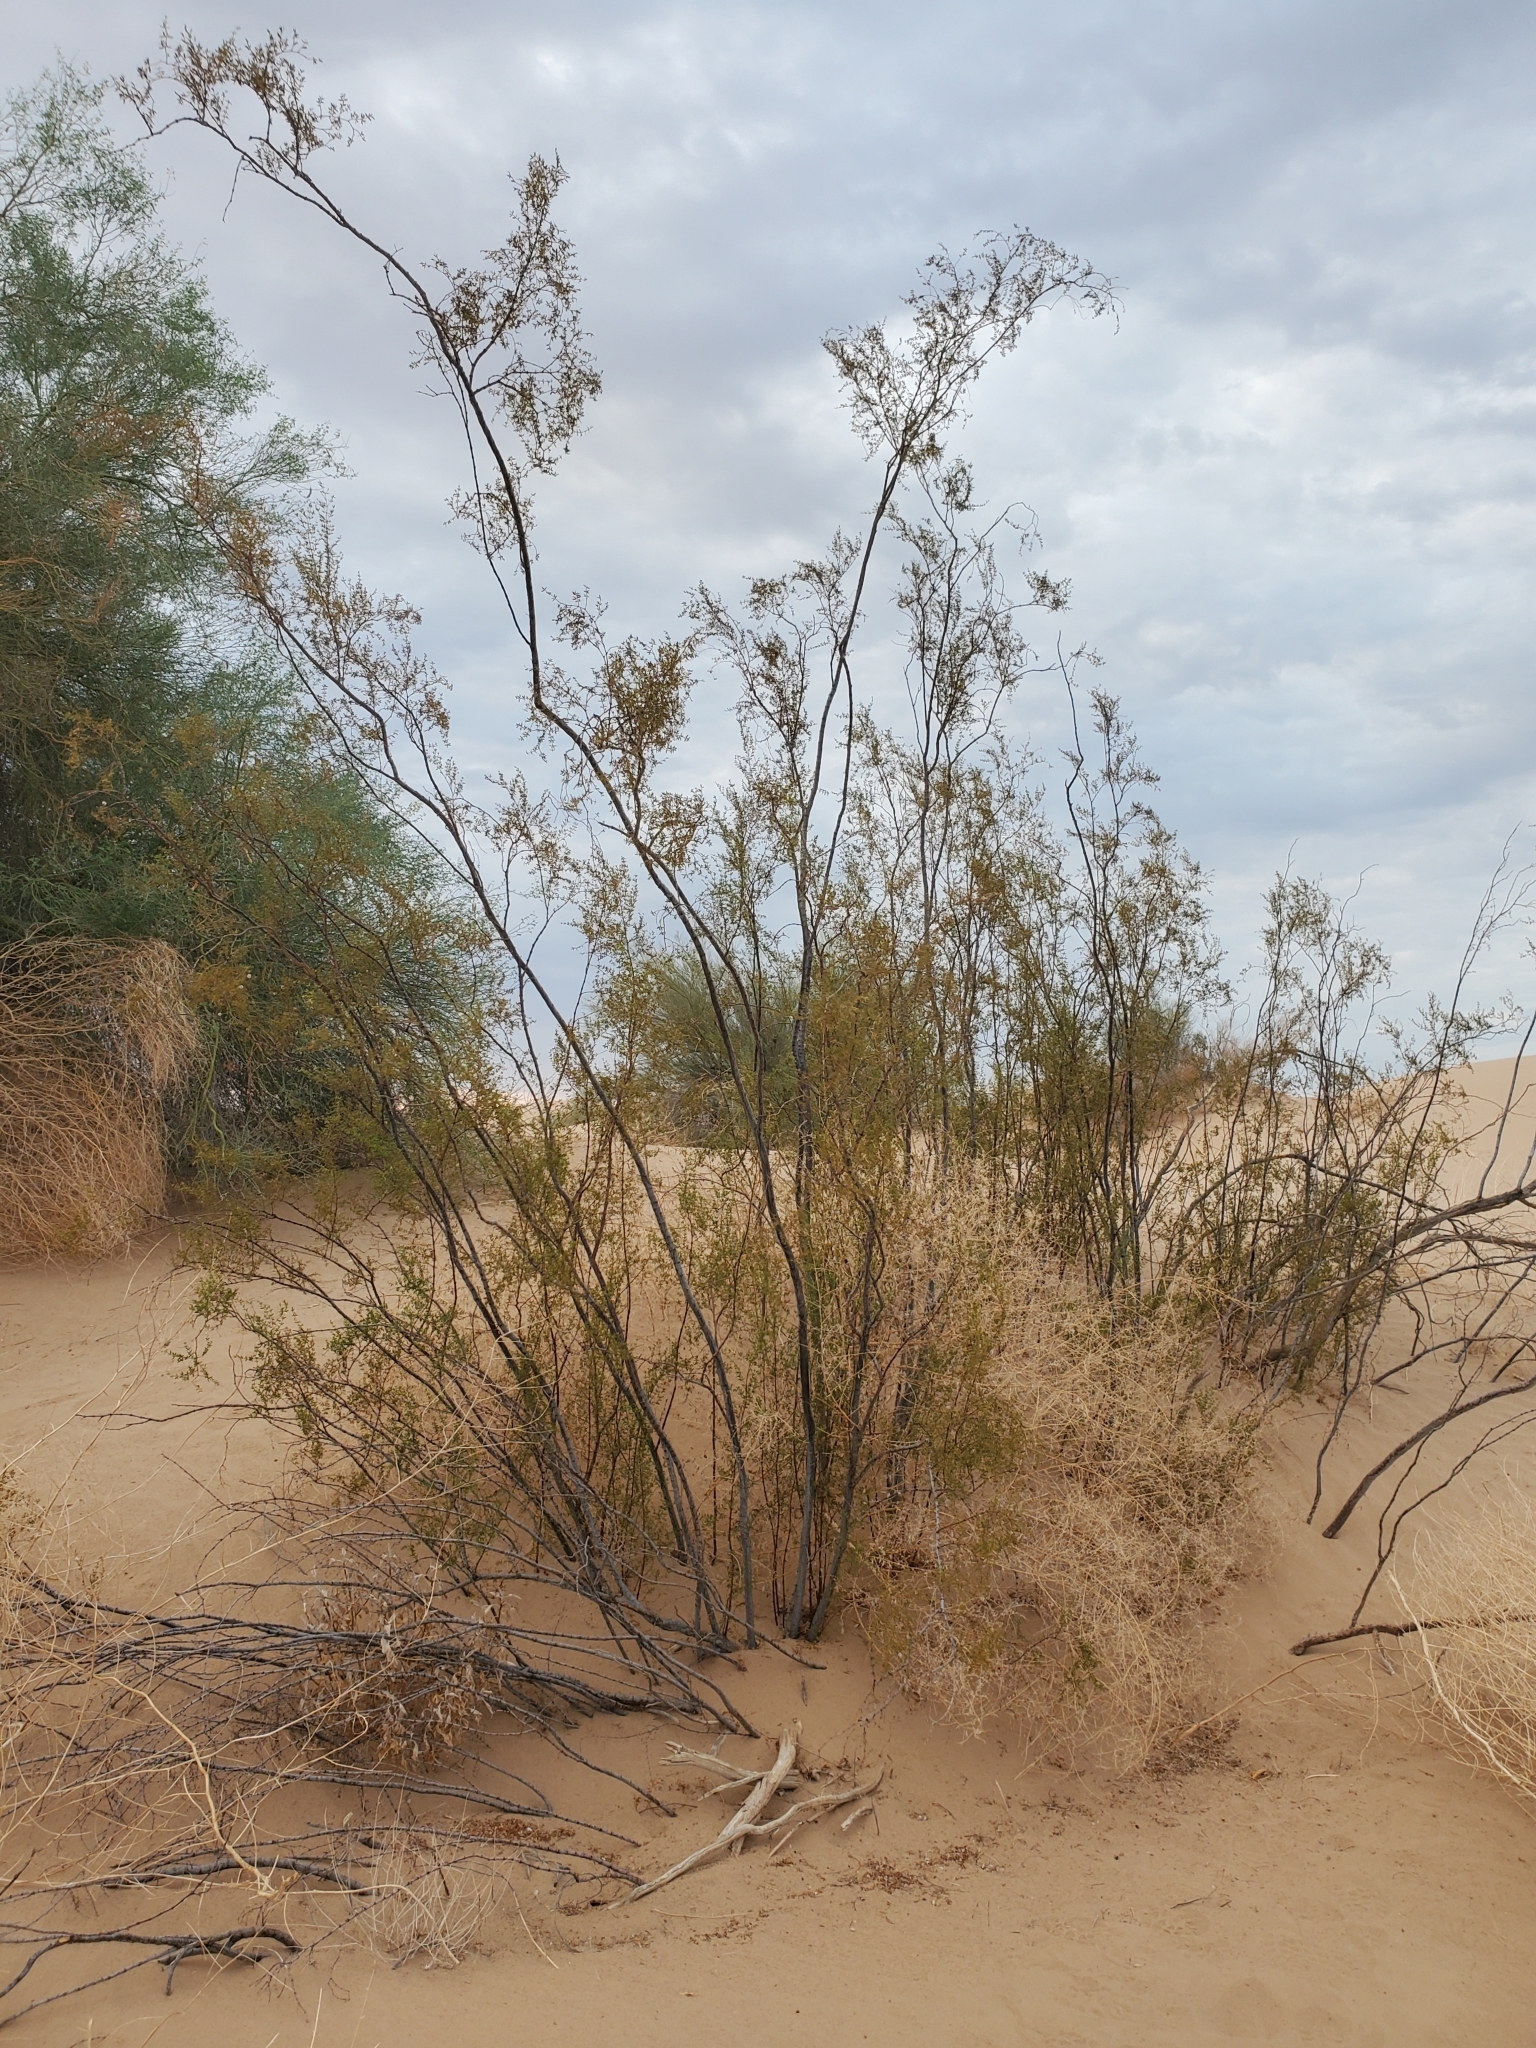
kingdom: Plantae
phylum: Tracheophyta
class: Magnoliopsida
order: Zygophyllales
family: Zygophyllaceae
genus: Larrea
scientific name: Larrea tridentata
